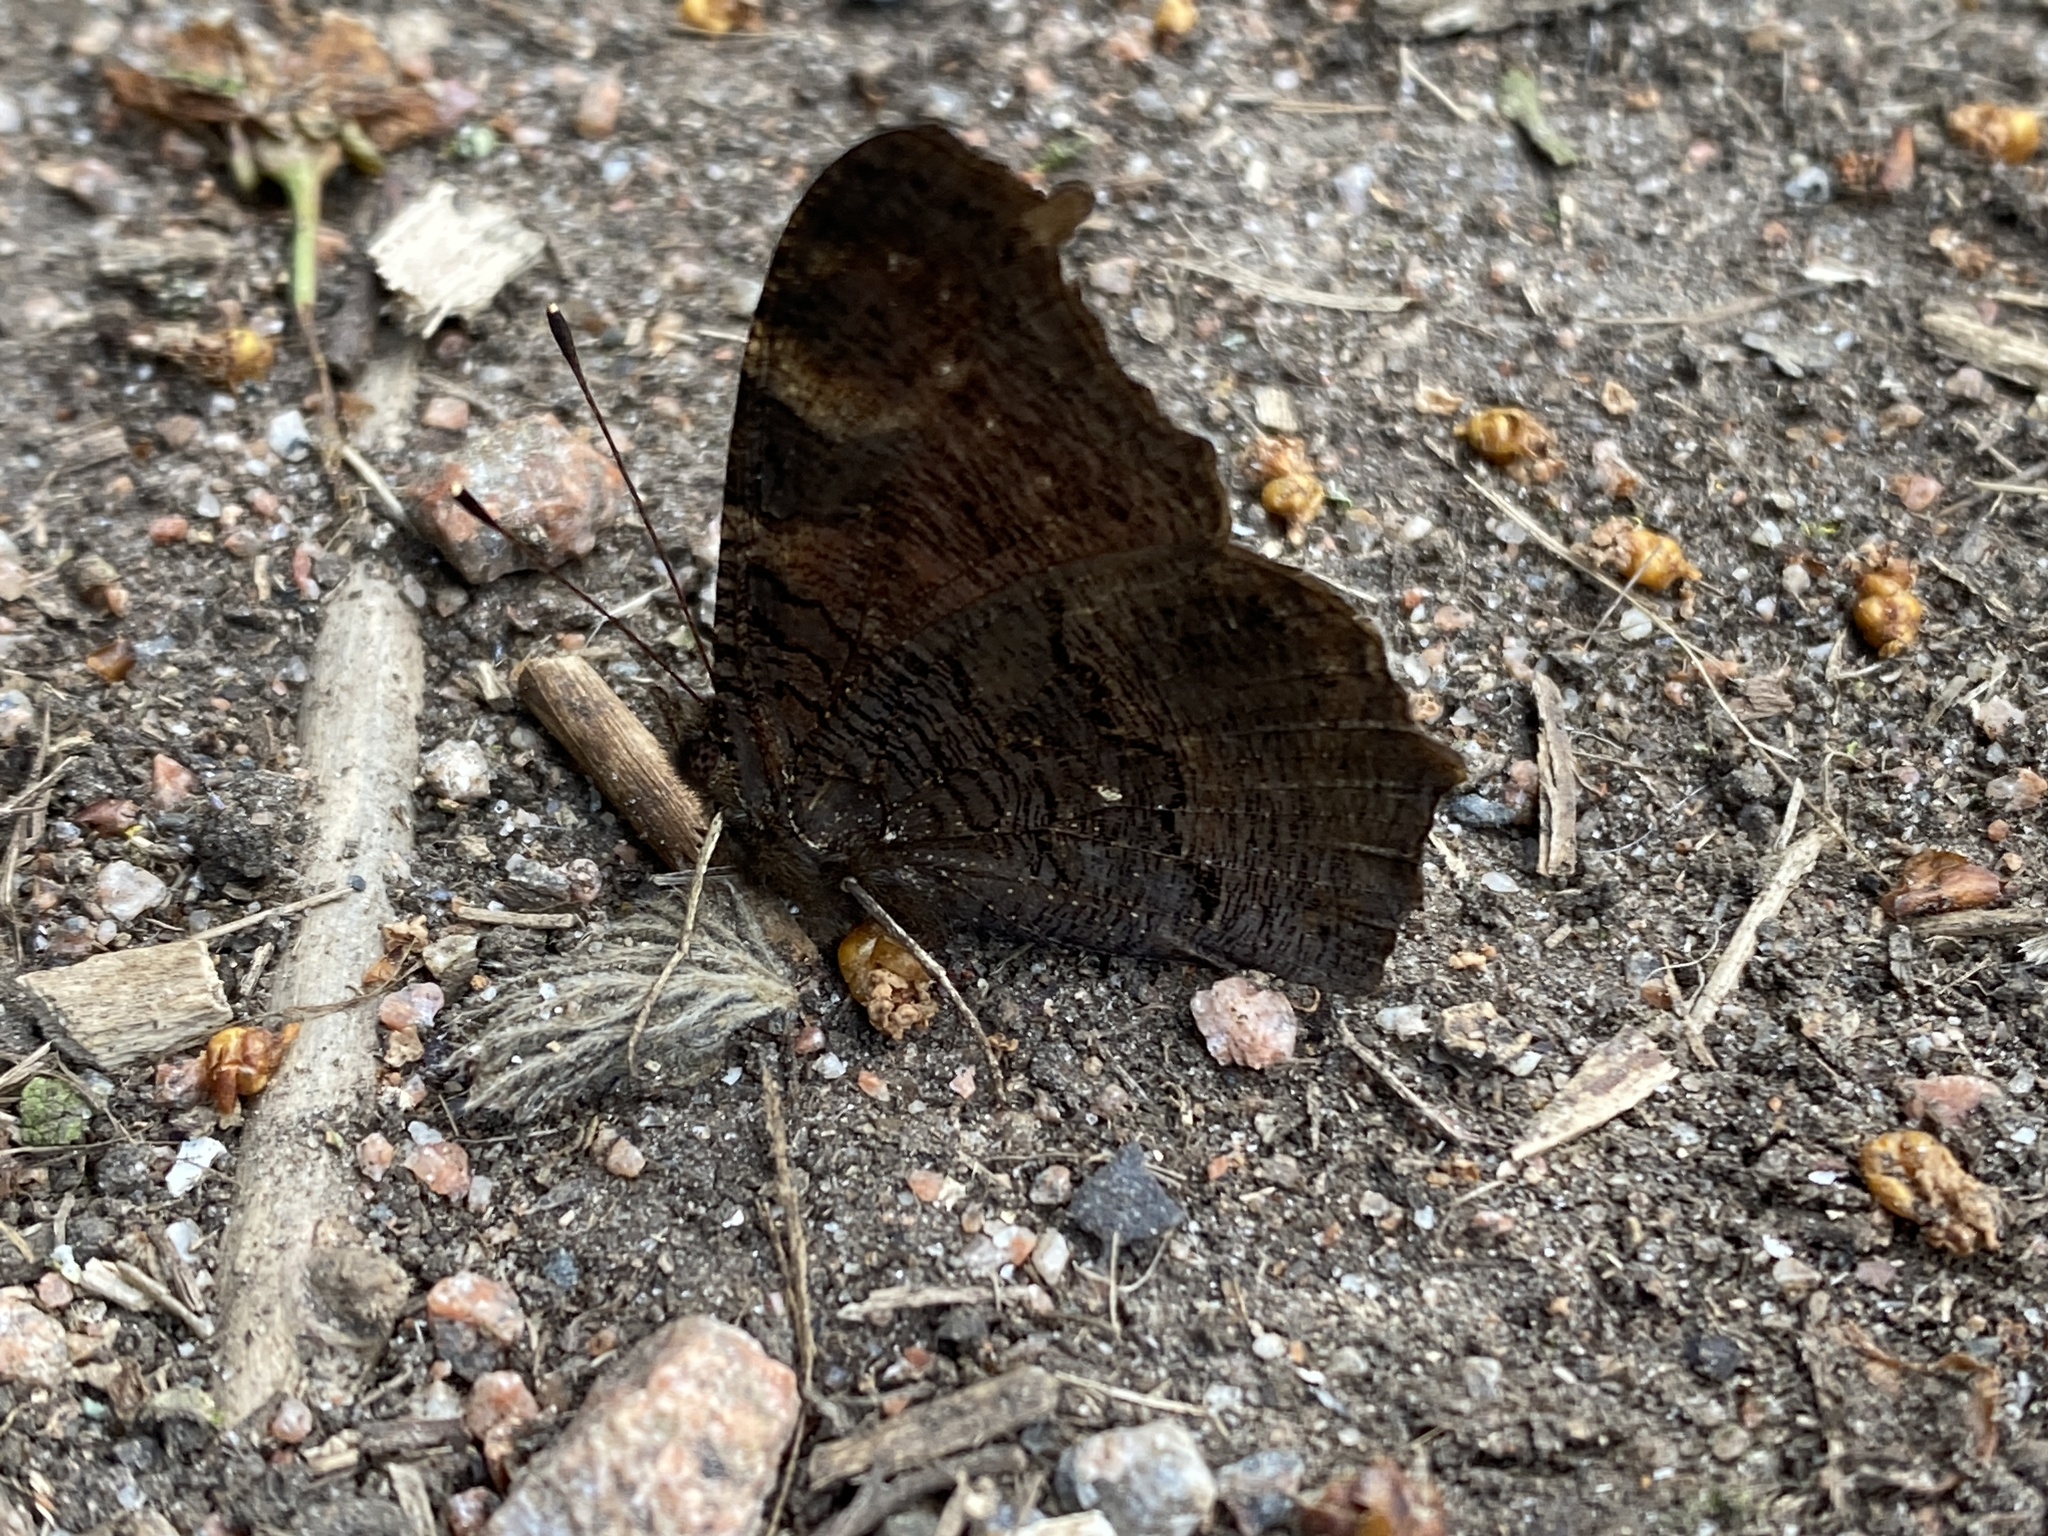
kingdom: Animalia
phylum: Arthropoda
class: Insecta
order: Lepidoptera
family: Nymphalidae
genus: Aglais
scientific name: Aglais io
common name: Peacock
